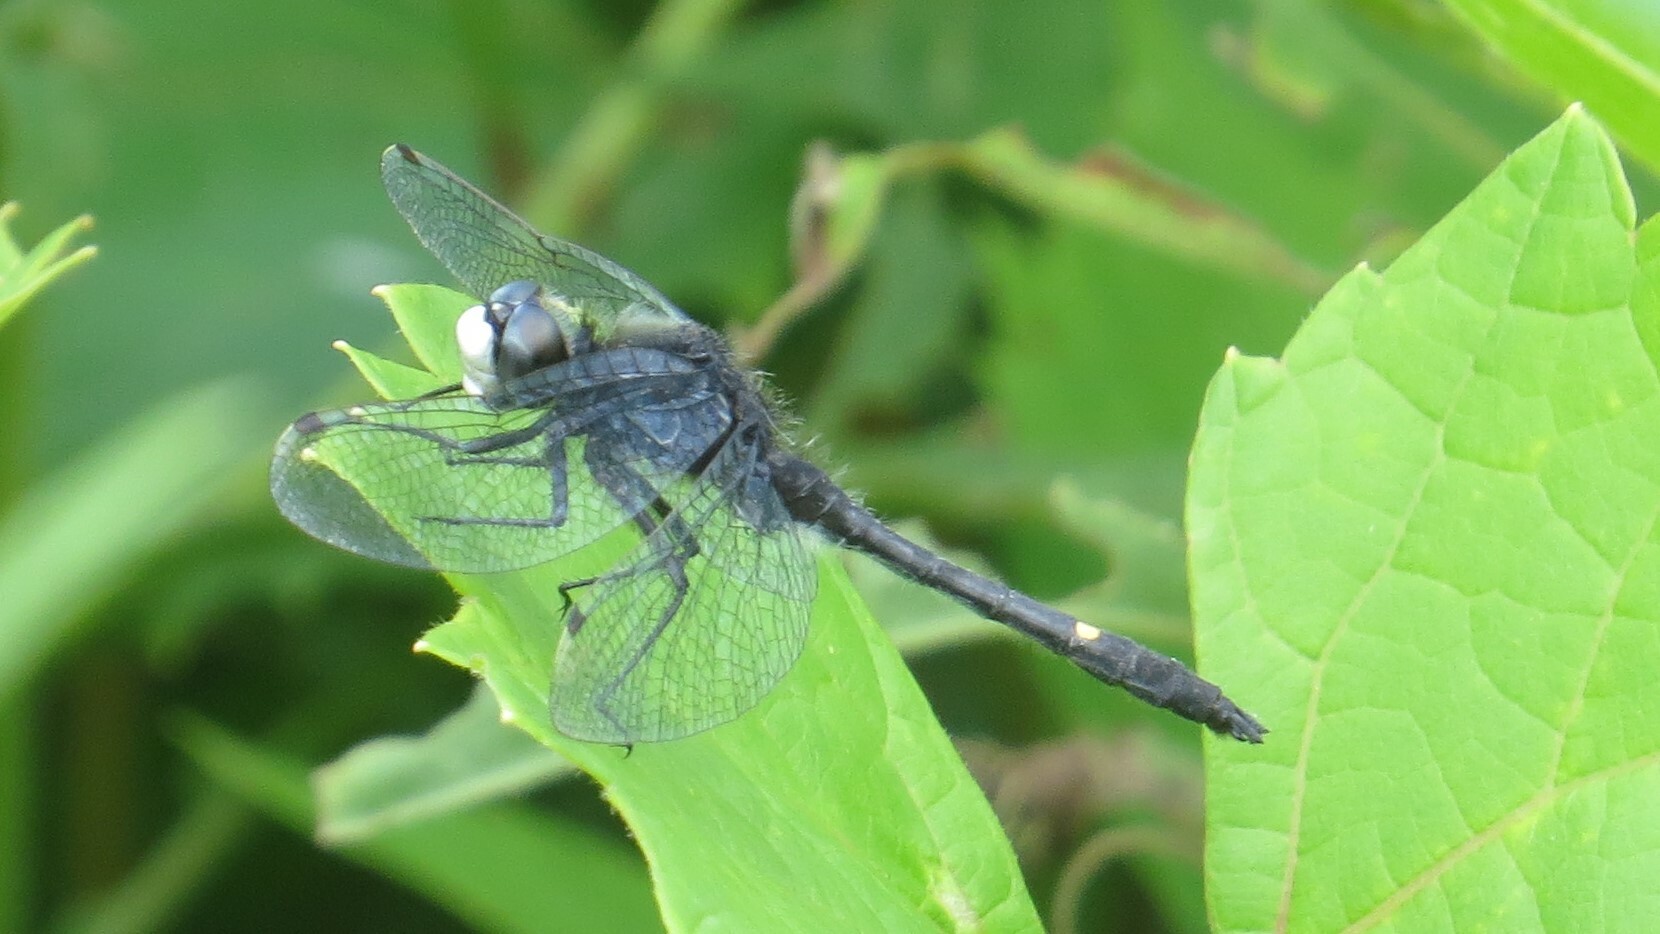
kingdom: Animalia
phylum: Arthropoda
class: Insecta
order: Odonata
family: Libellulidae
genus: Leucorrhinia
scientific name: Leucorrhinia intacta
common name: Dot-tailed whiteface
